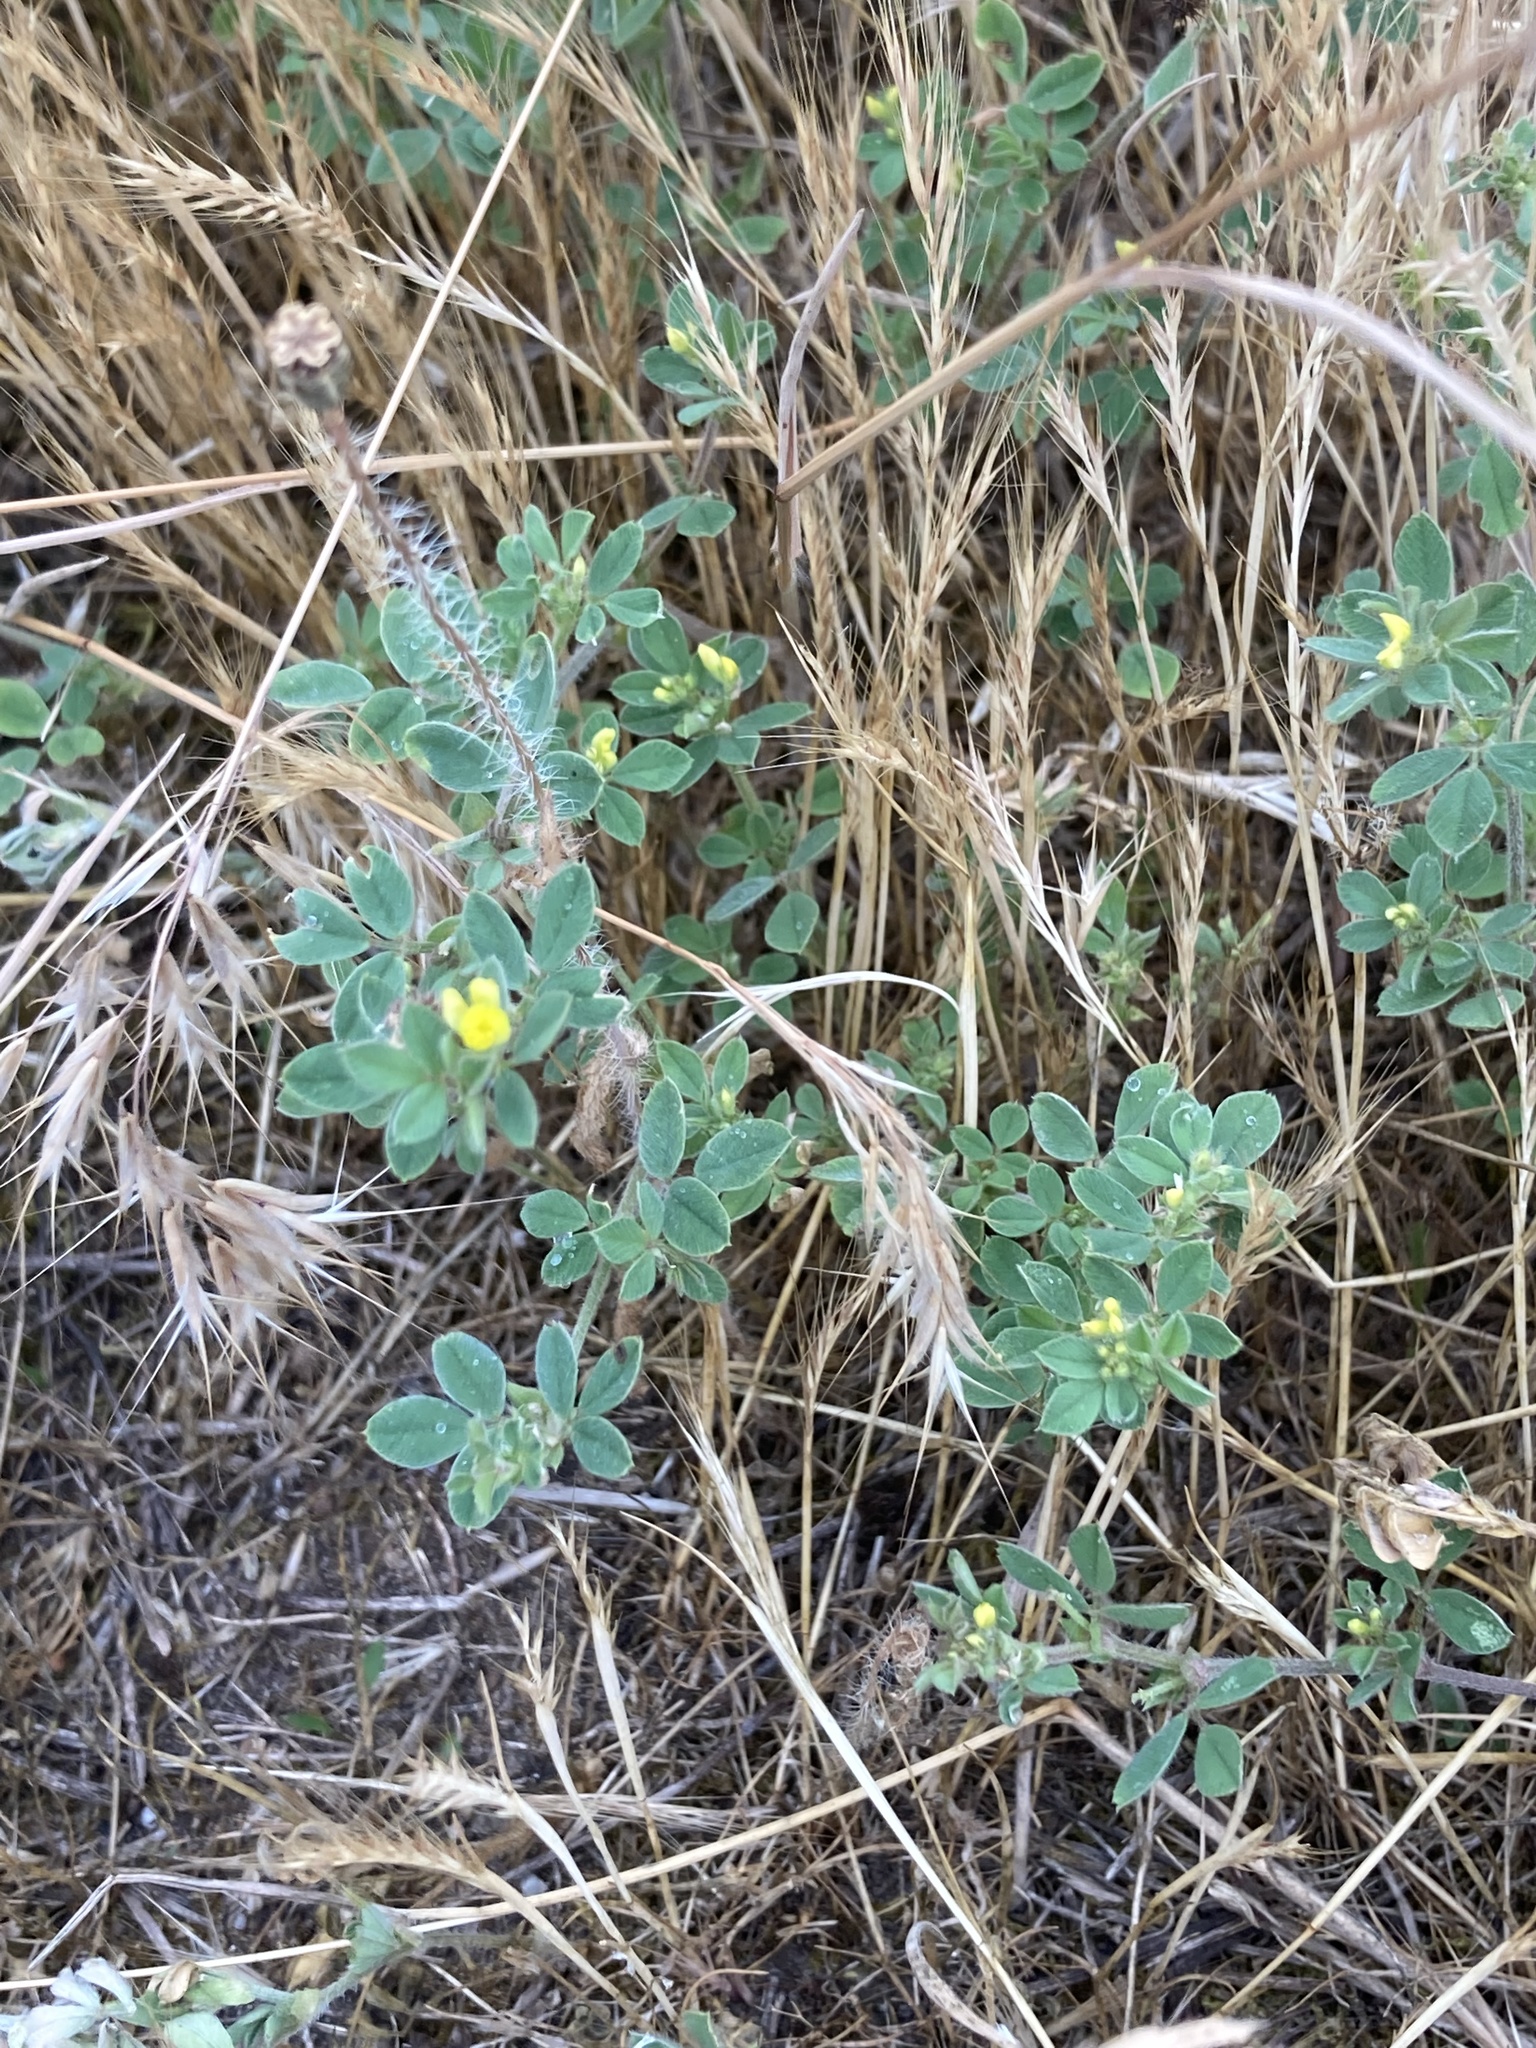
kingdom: Plantae
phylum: Tracheophyta
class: Magnoliopsida
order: Fabales
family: Fabaceae
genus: Medicago
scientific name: Medicago minima
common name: Little bur-clover
